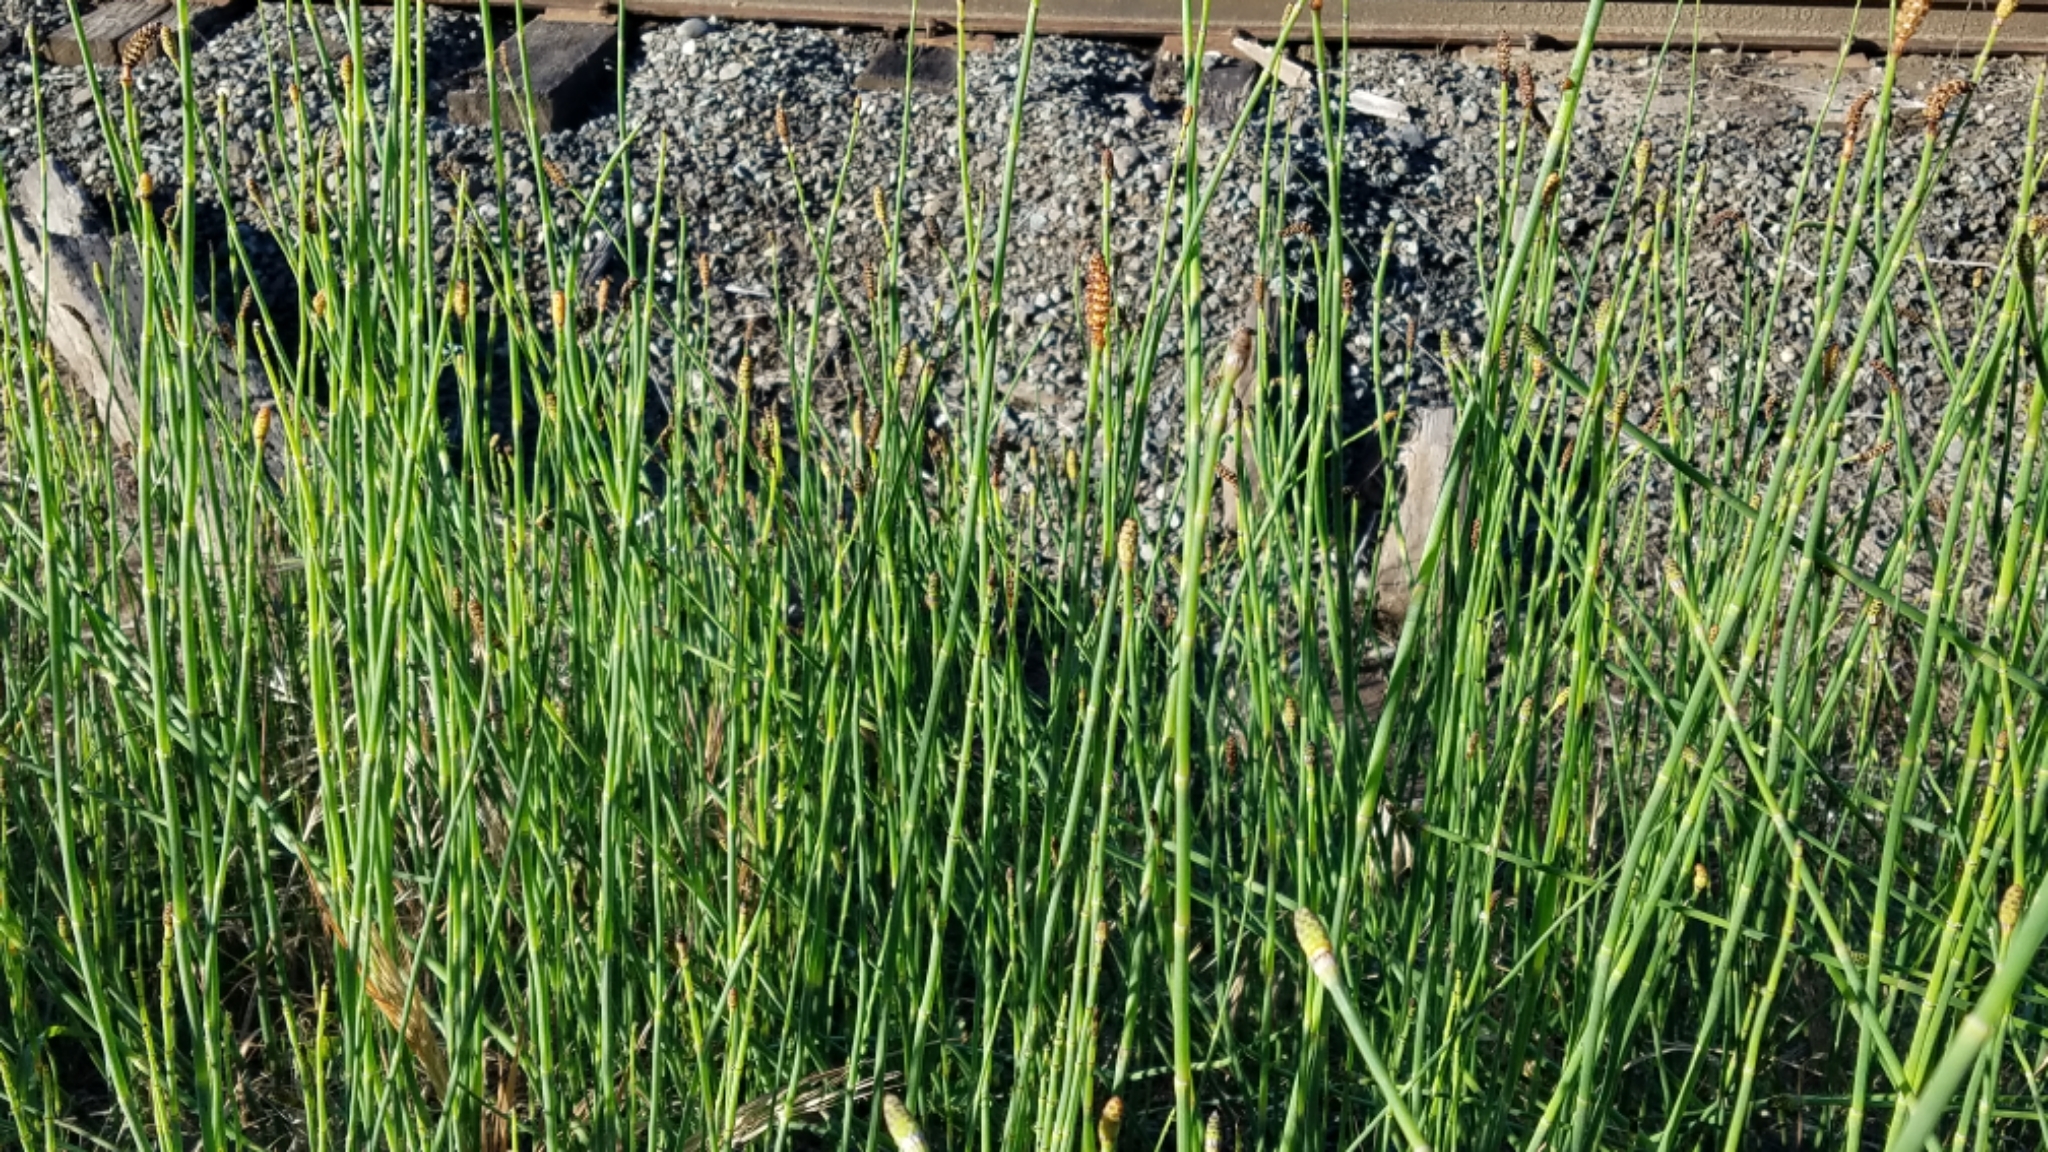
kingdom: Plantae
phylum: Tracheophyta
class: Polypodiopsida
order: Equisetales
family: Equisetaceae
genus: Equisetum
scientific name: Equisetum laevigatum
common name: Smooth scouring-rush
